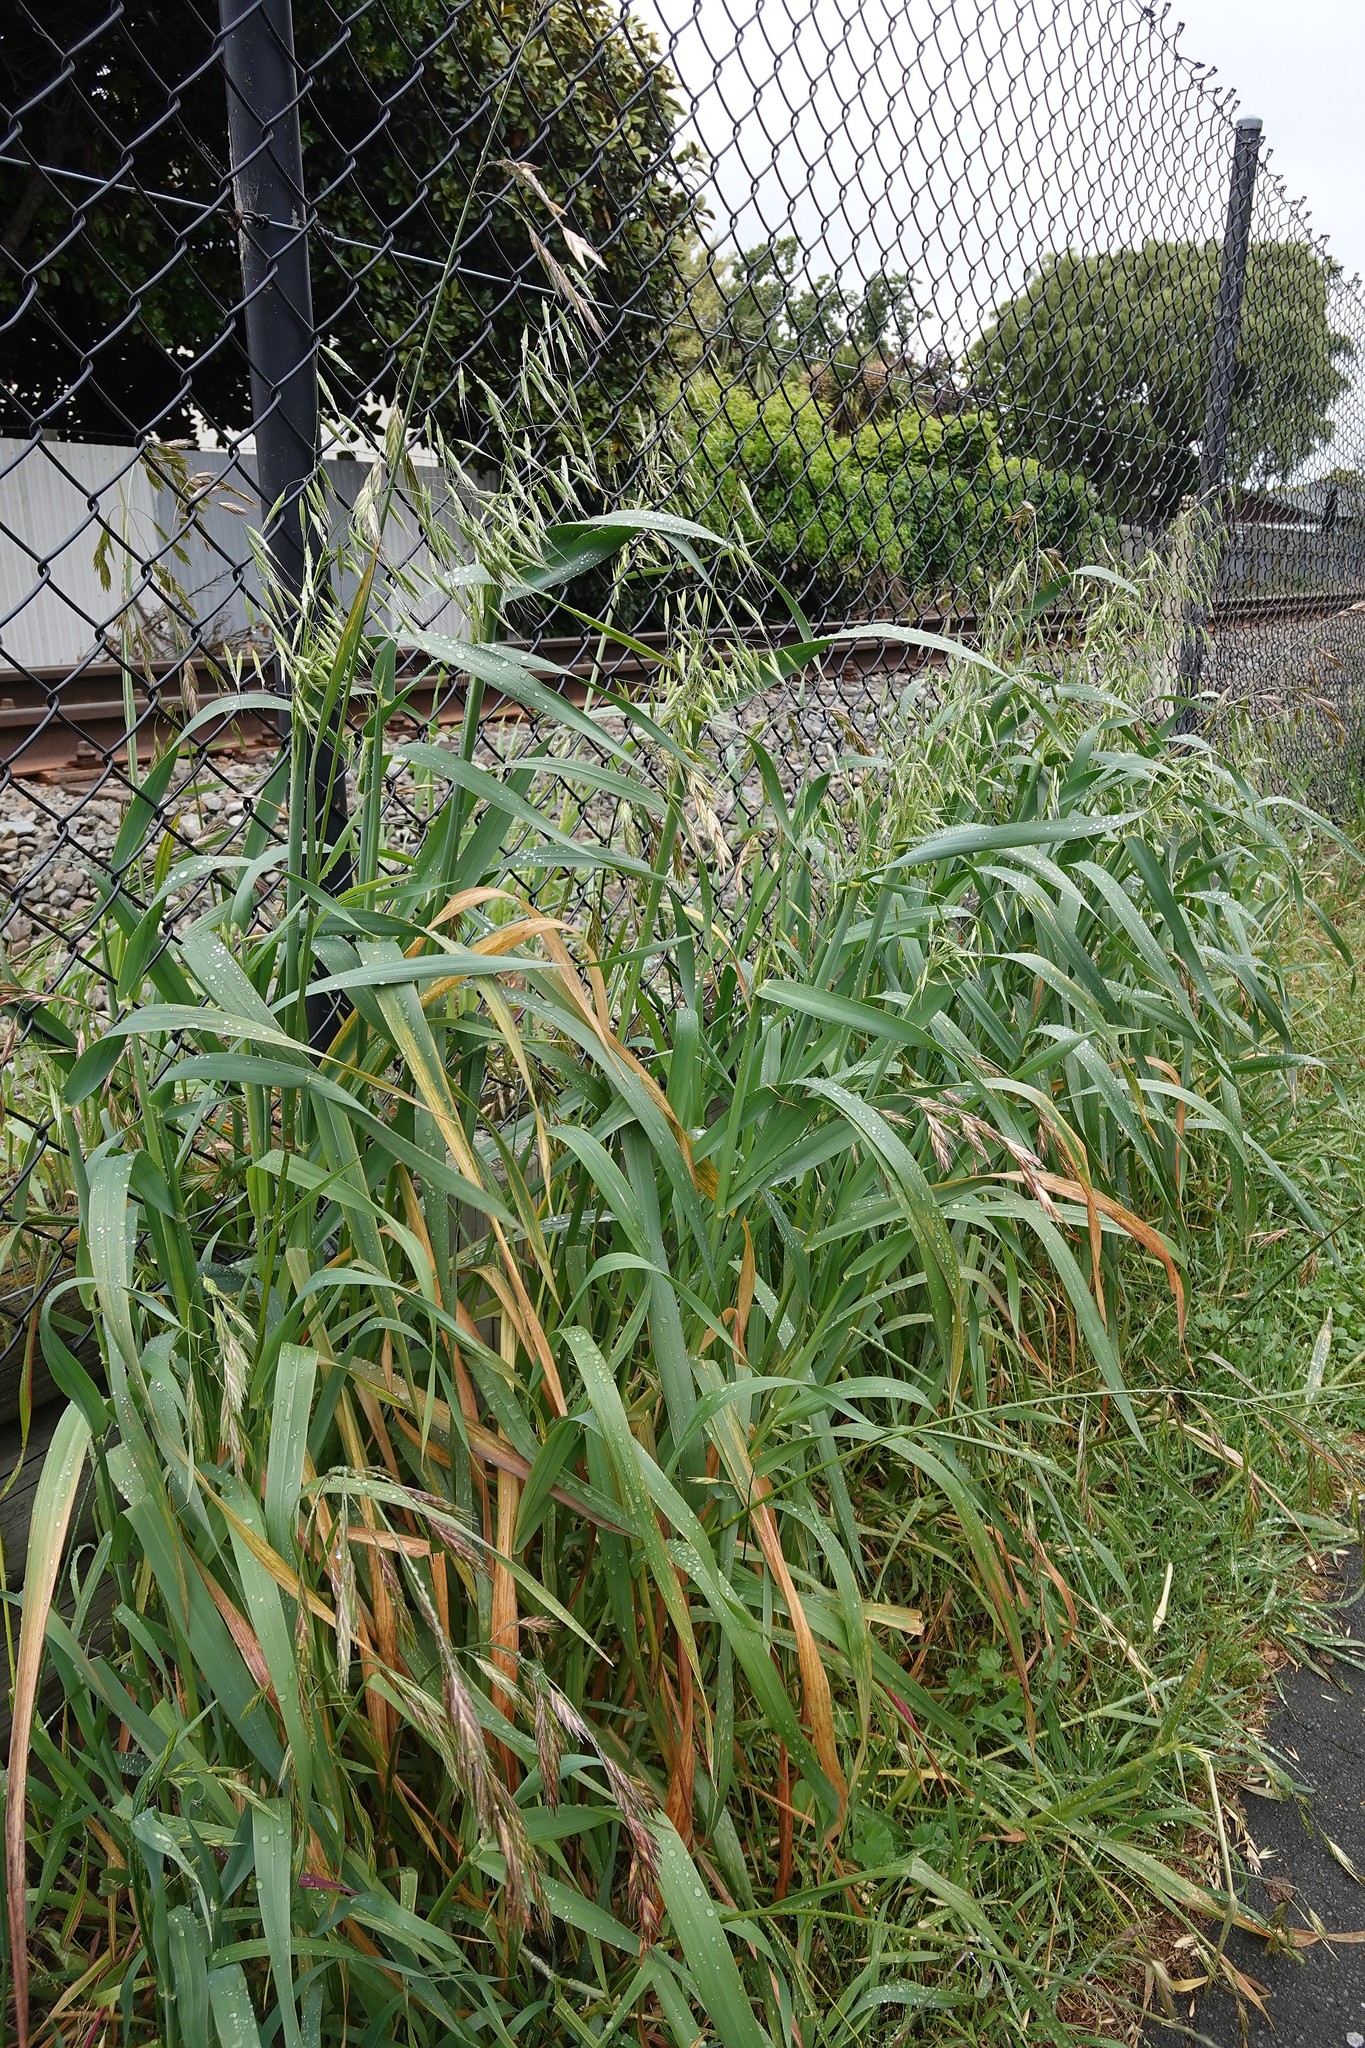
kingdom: Plantae
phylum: Tracheophyta
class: Liliopsida
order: Poales
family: Poaceae
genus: Avena
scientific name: Avena fatua
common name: Wild oat
